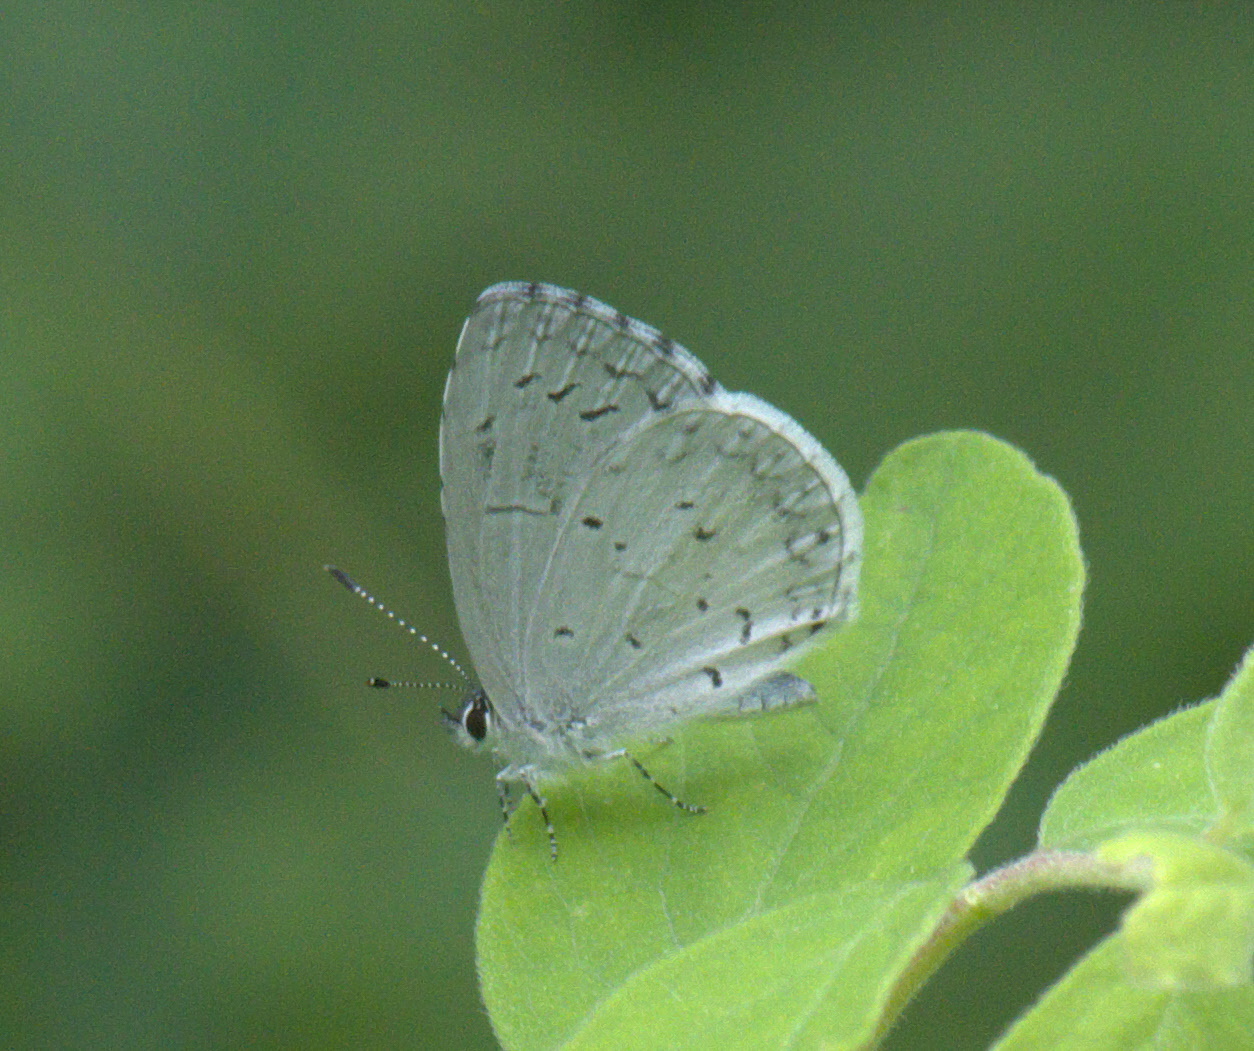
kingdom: Animalia
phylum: Arthropoda
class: Insecta
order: Lepidoptera
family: Lycaenidae
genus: Cyaniris
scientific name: Cyaniris neglecta
